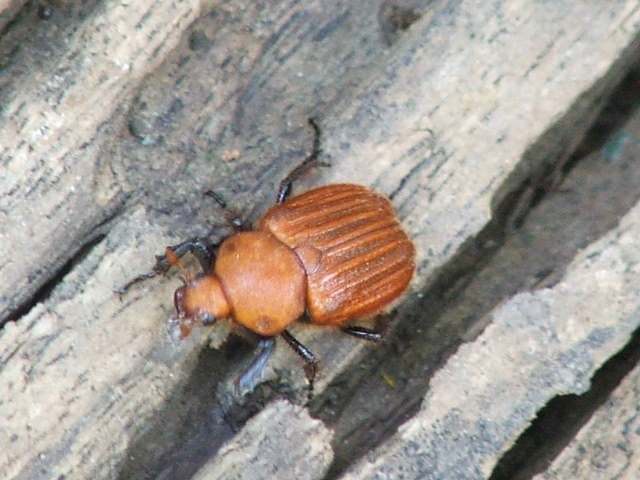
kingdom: Animalia
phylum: Arthropoda
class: Insecta
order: Coleoptera
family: Scarabaeidae
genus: Myodermum
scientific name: Myodermum rufum
